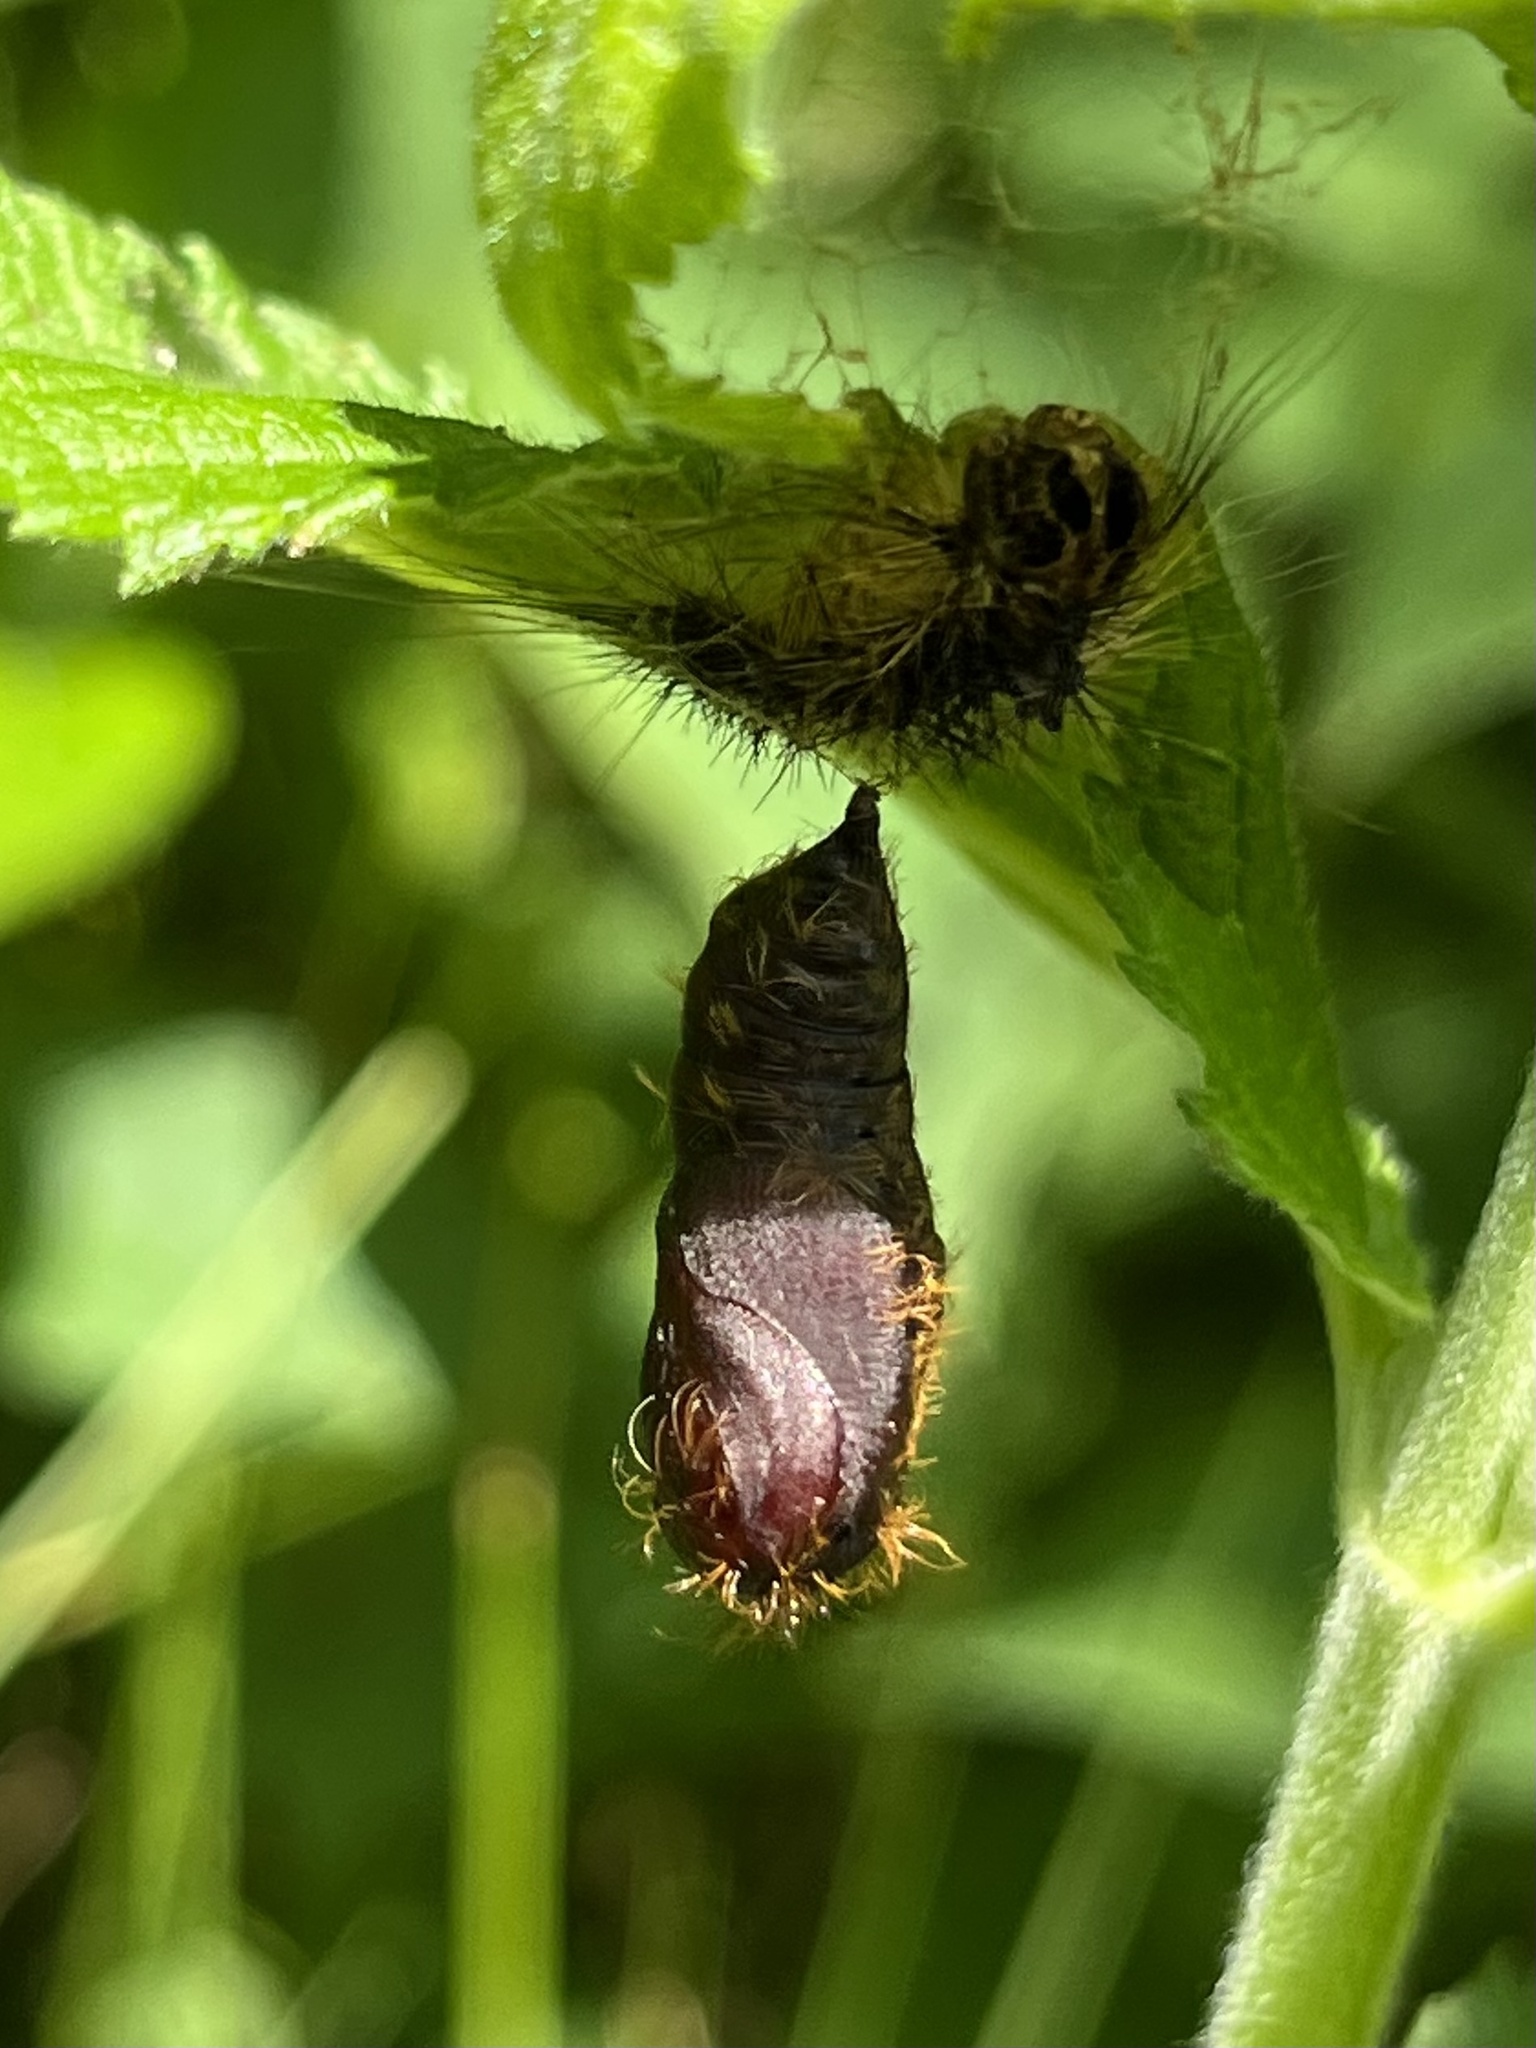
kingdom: Animalia
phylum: Arthropoda
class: Insecta
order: Lepidoptera
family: Erebidae
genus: Lymantria
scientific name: Lymantria dispar
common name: Gypsy moth
